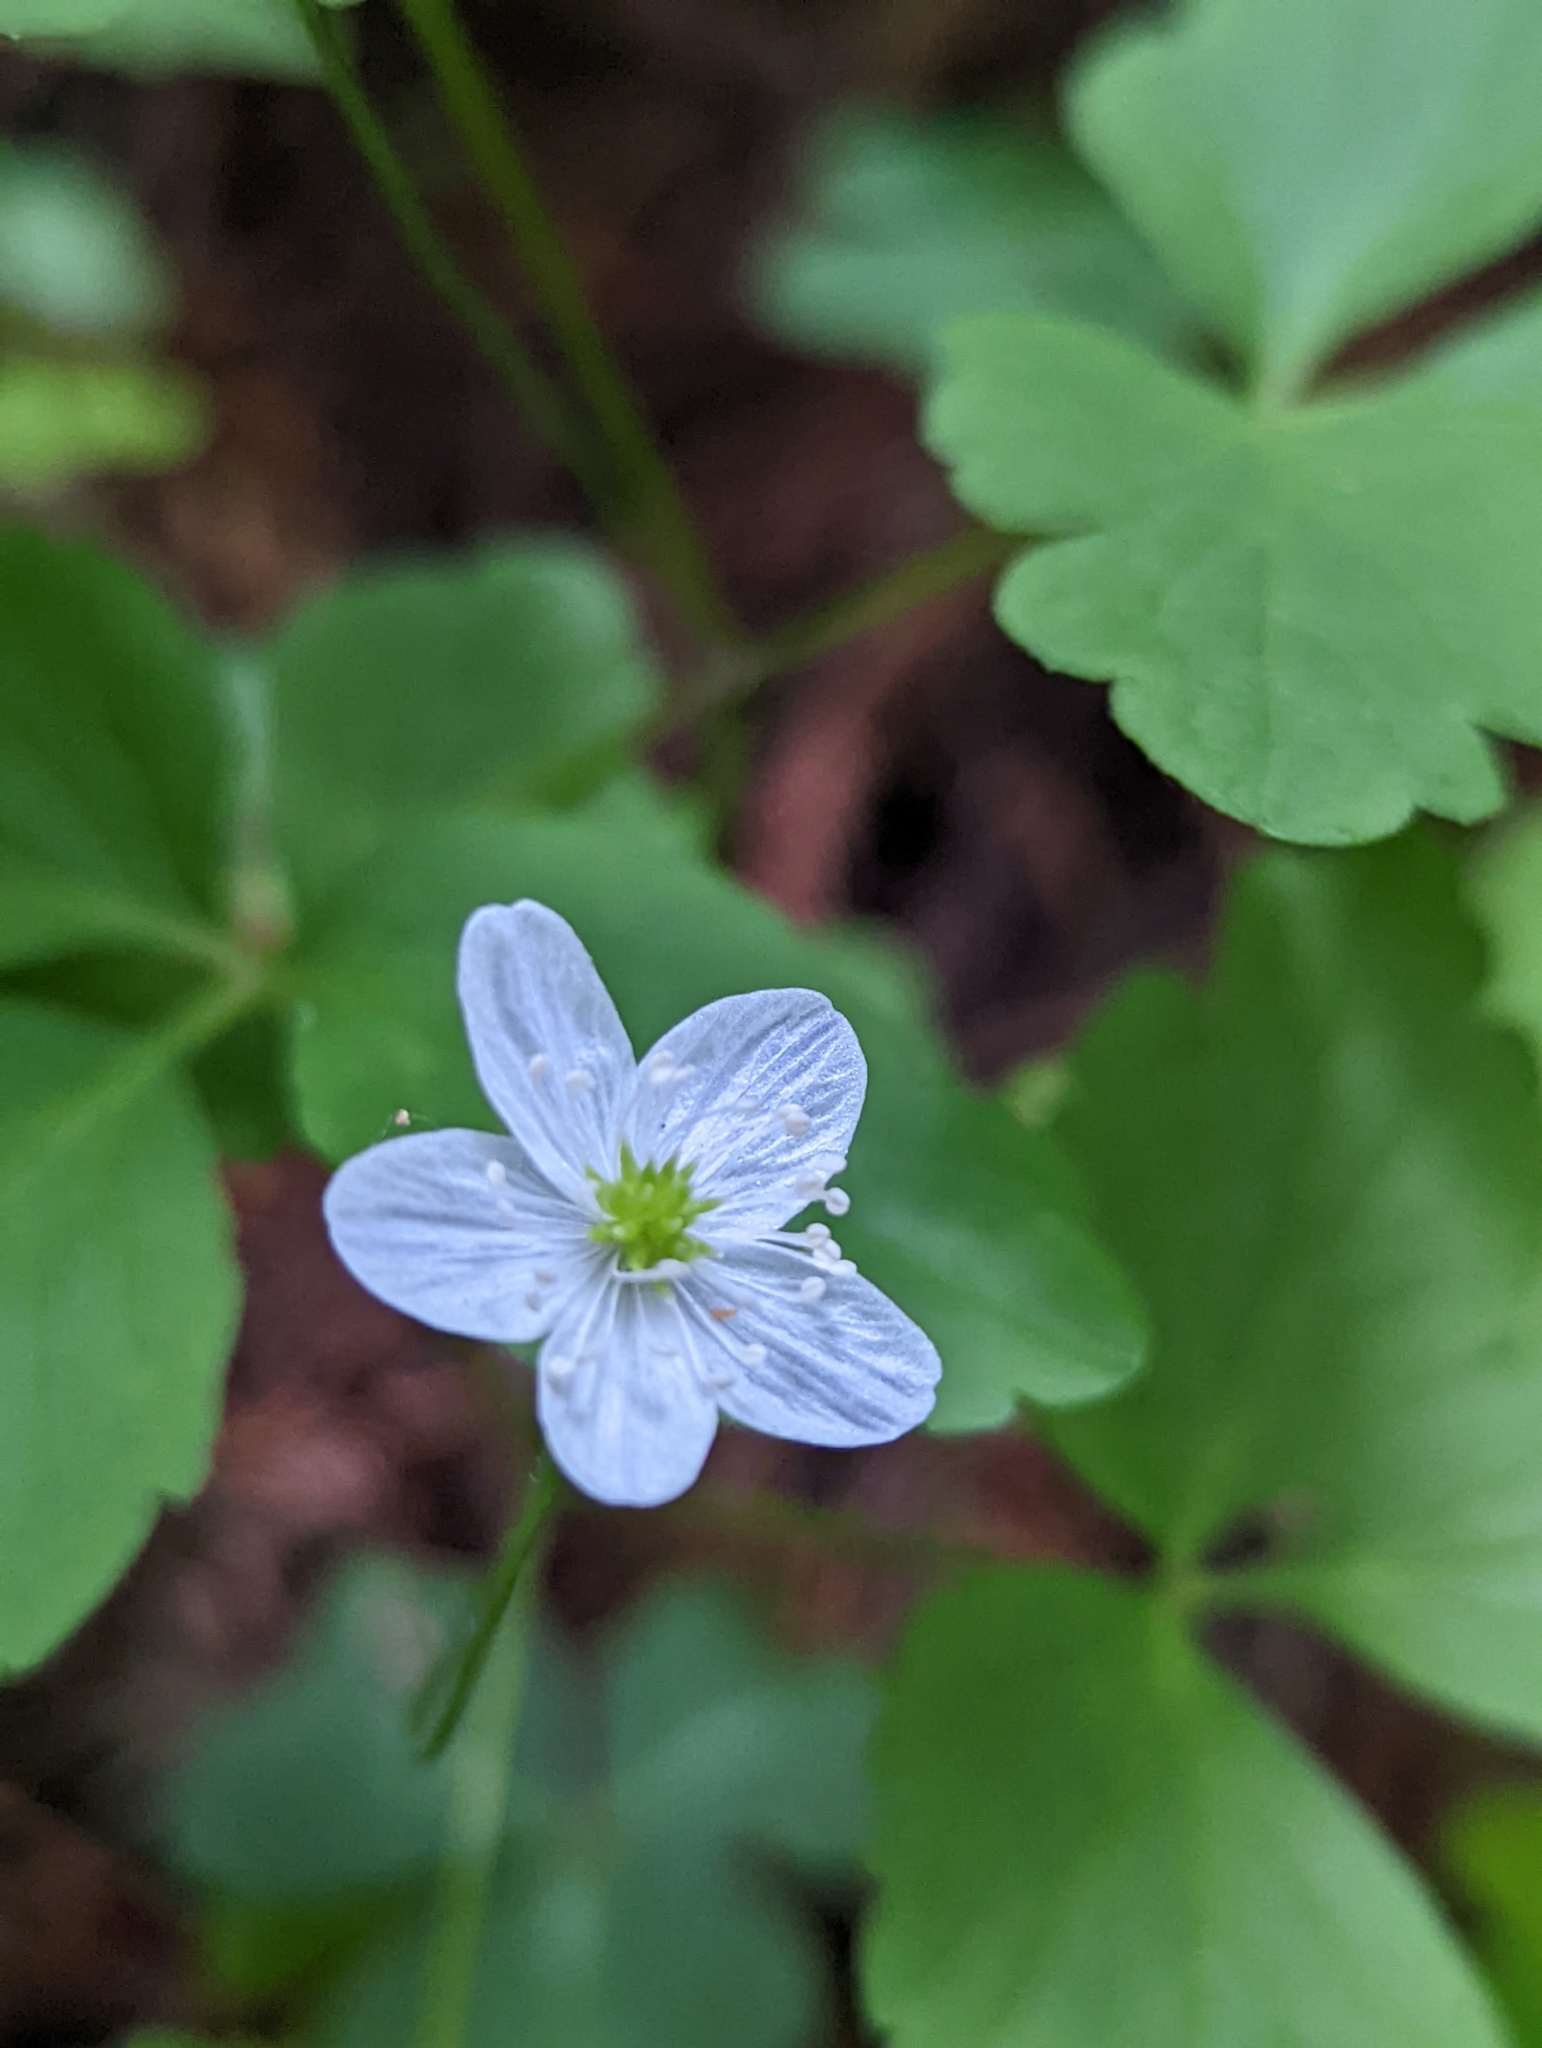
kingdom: Plantae
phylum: Tracheophyta
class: Magnoliopsida
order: Ranunculales
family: Ranunculaceae
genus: Anemone
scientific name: Anemone
